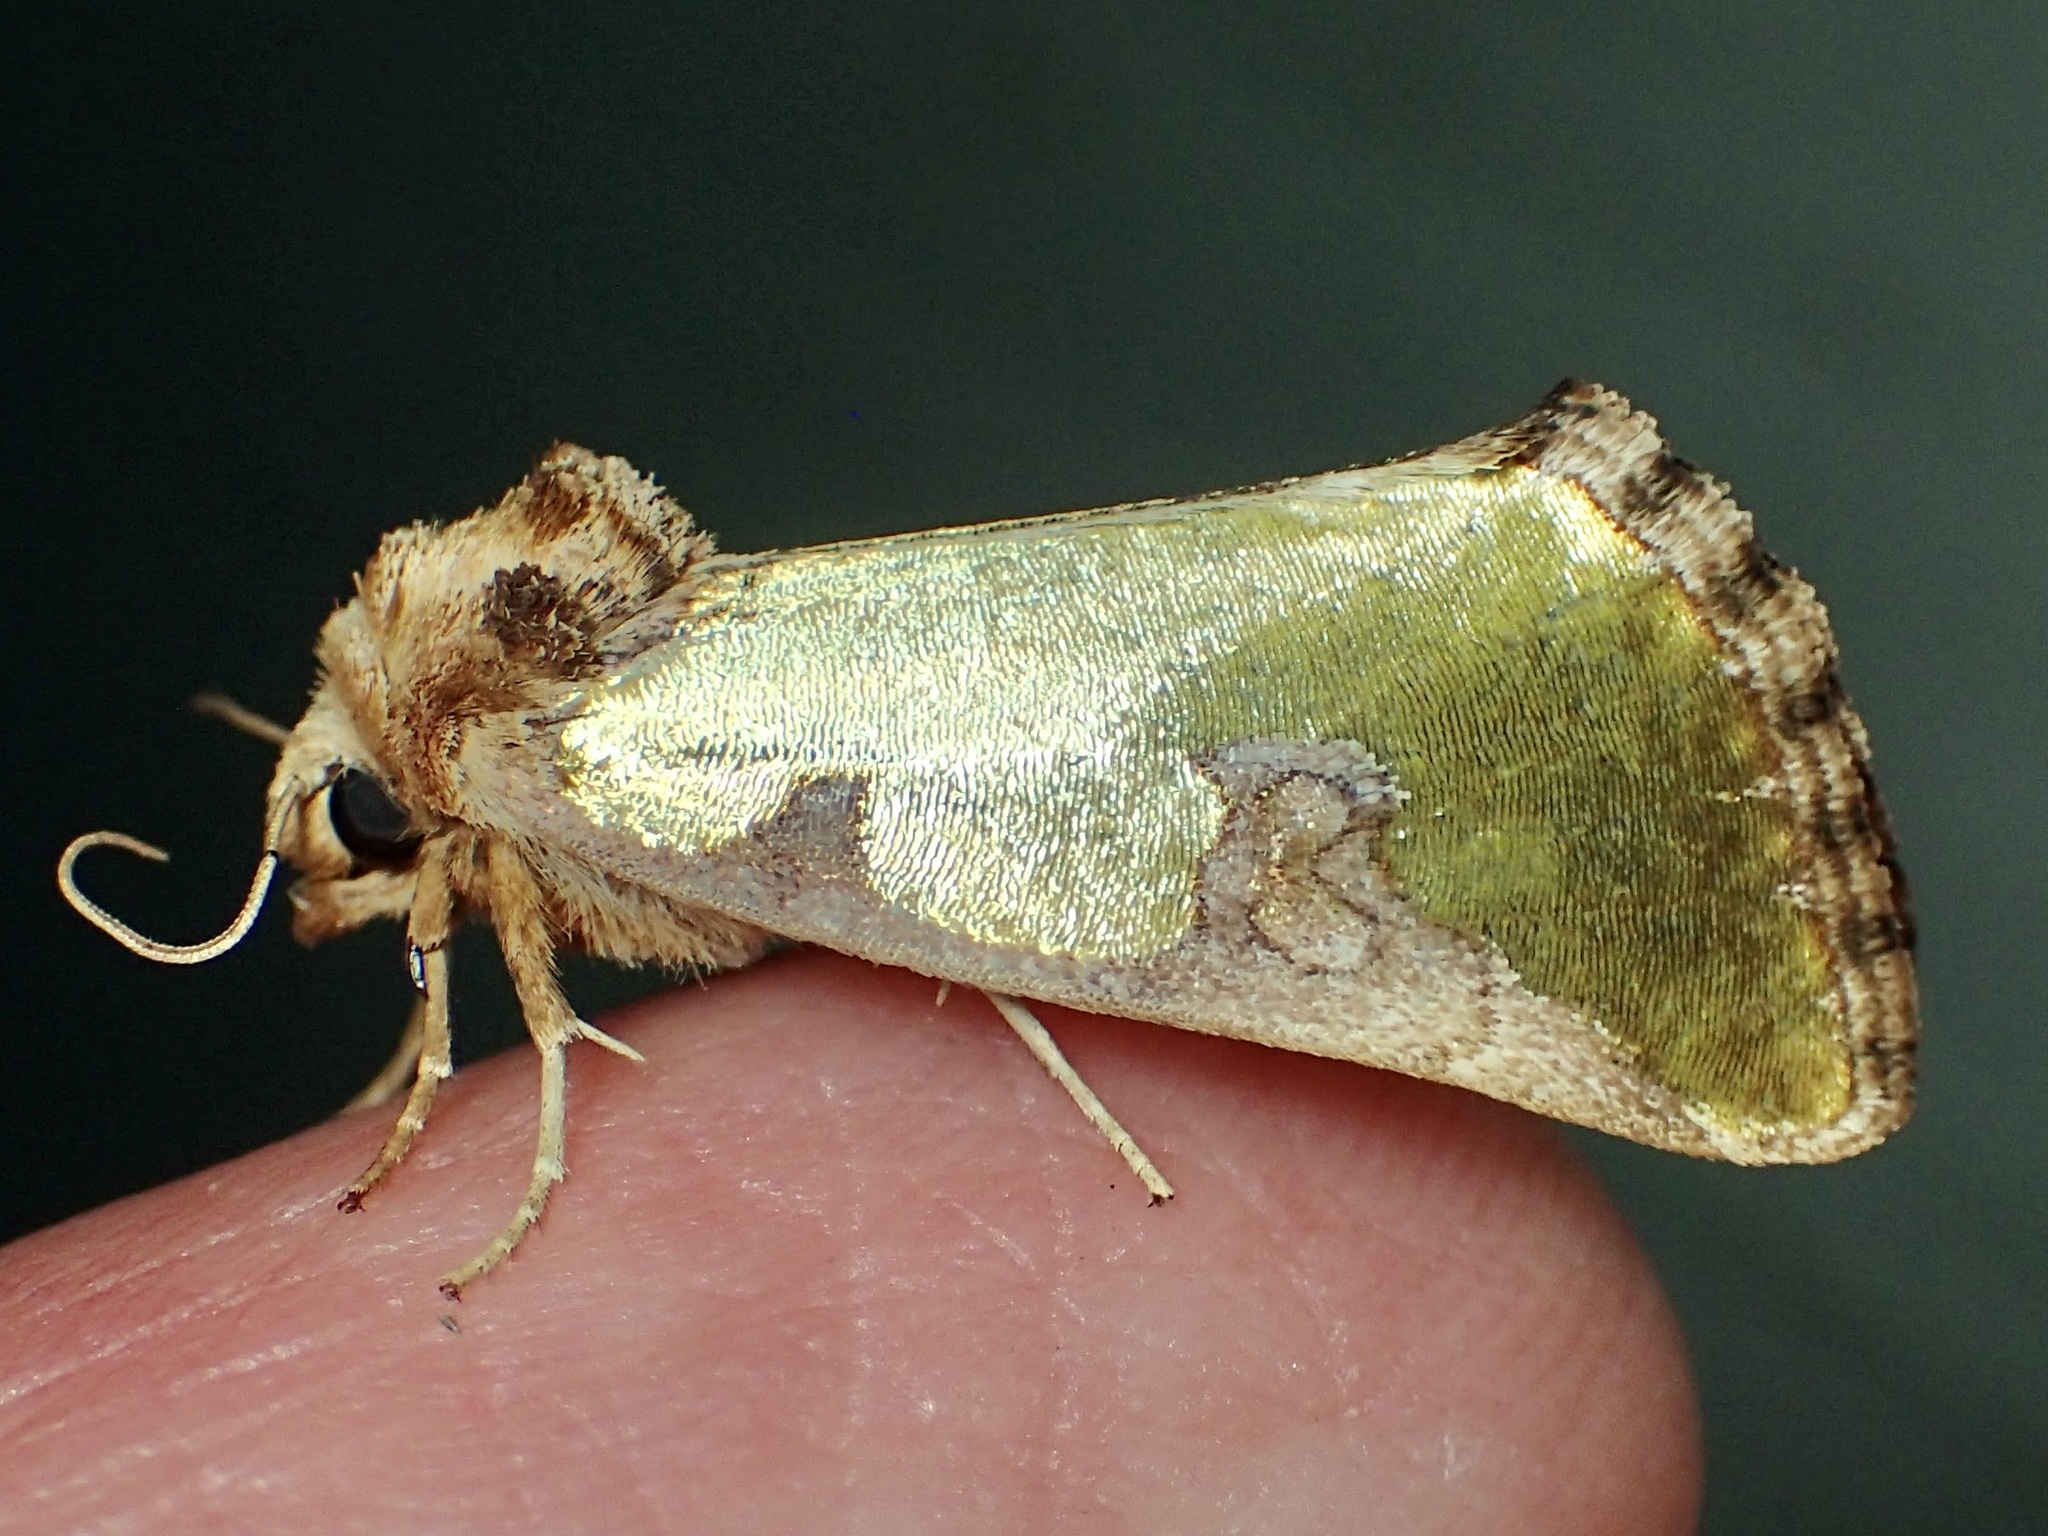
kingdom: Animalia
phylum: Arthropoda
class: Insecta
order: Lepidoptera
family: Noctuidae
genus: Chalcopasta
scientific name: Chalcopasta territans
